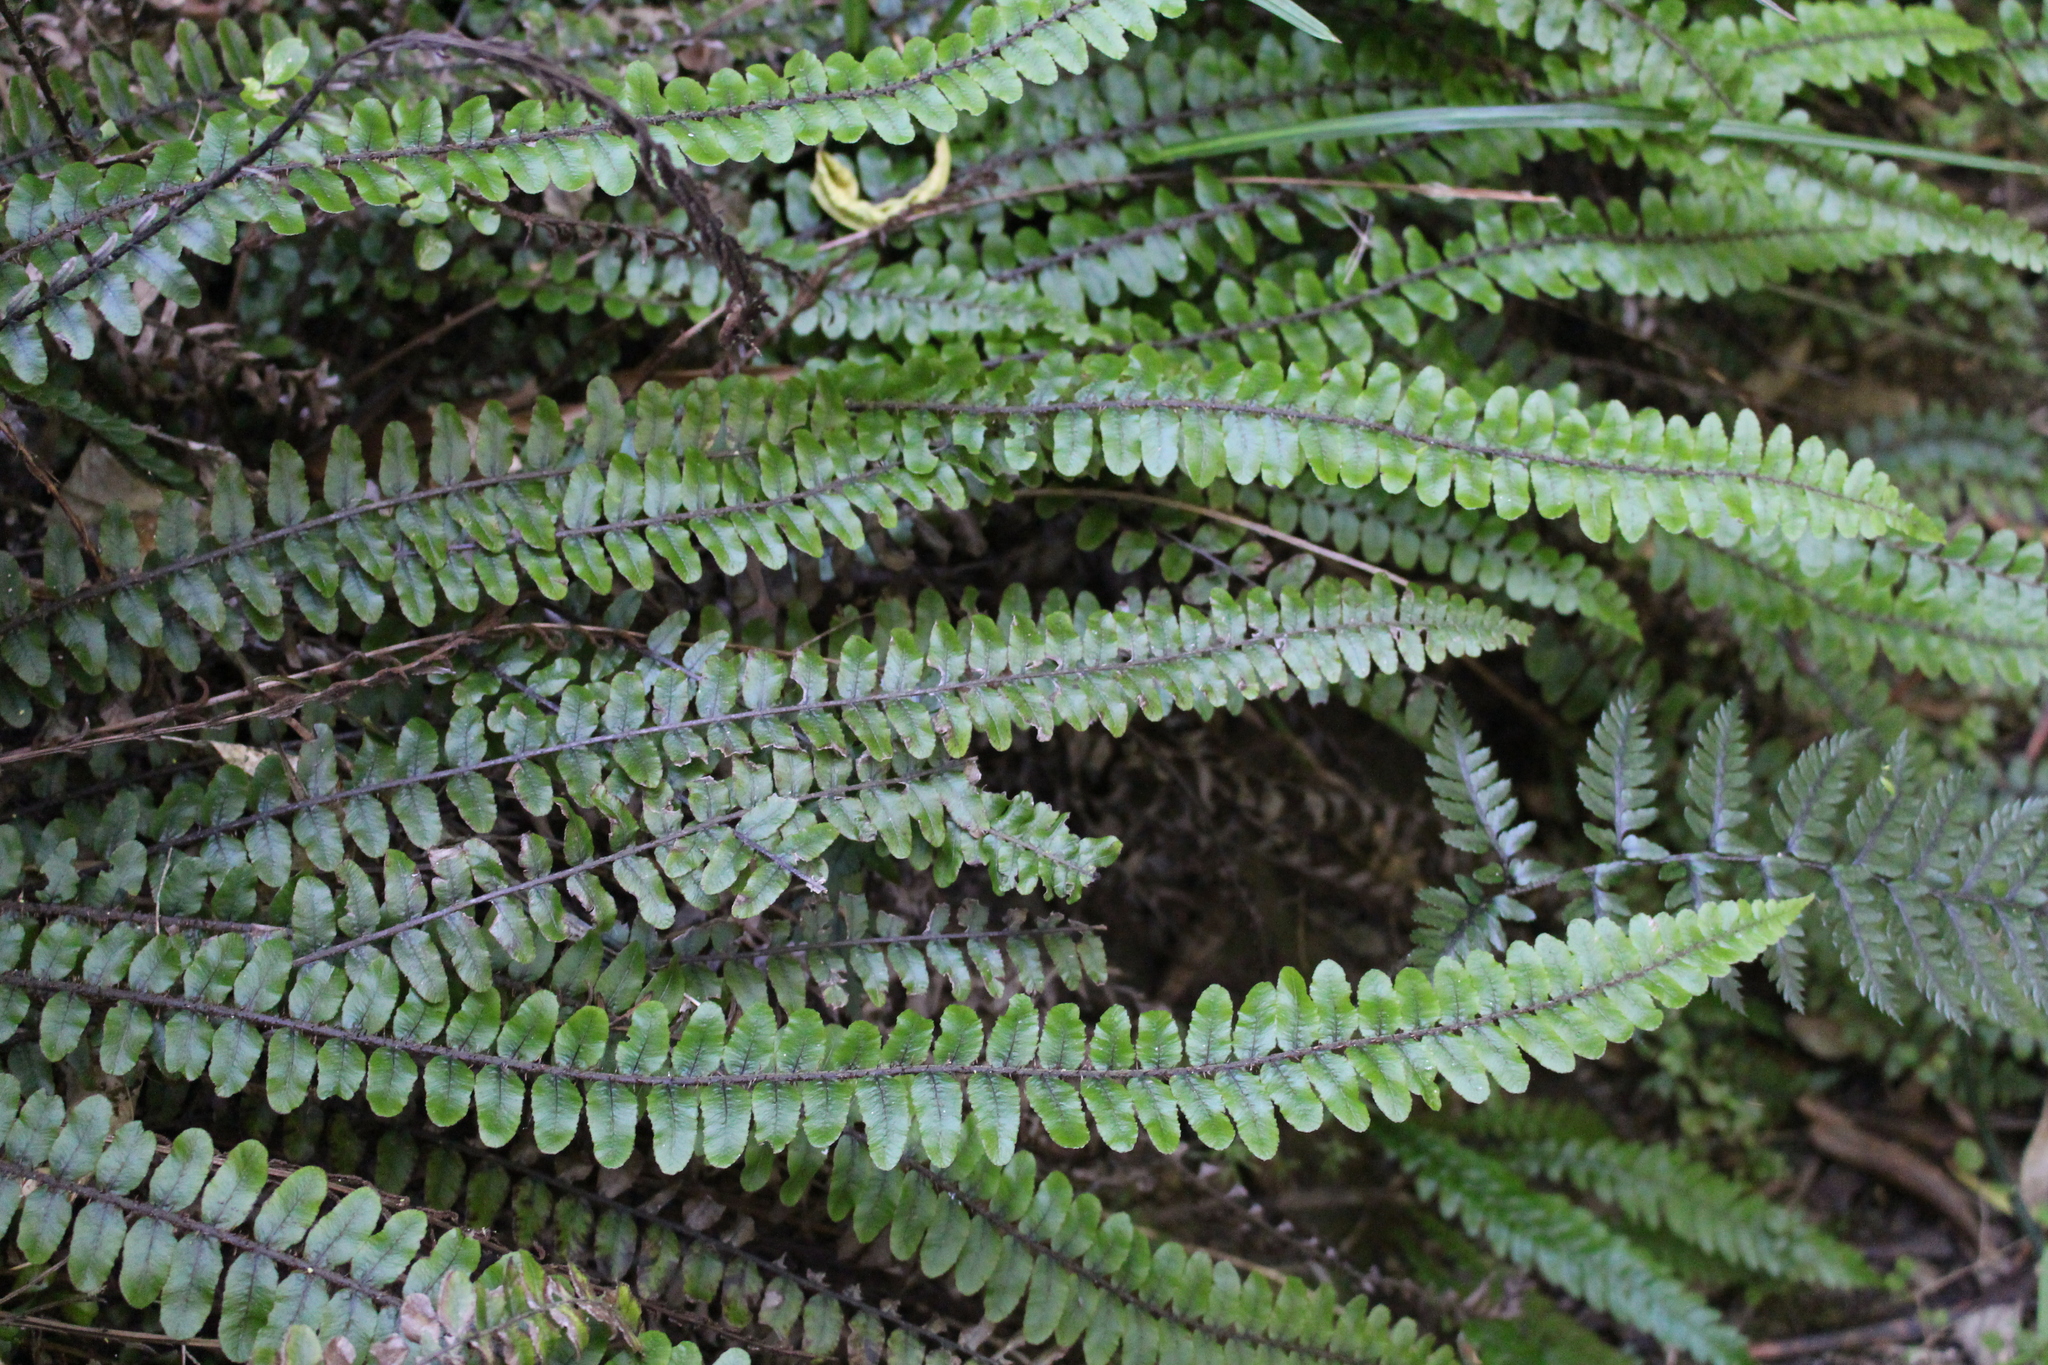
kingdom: Plantae
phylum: Tracheophyta
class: Polypodiopsida
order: Polypodiales
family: Blechnaceae
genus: Cranfillia
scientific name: Cranfillia fluviatilis
